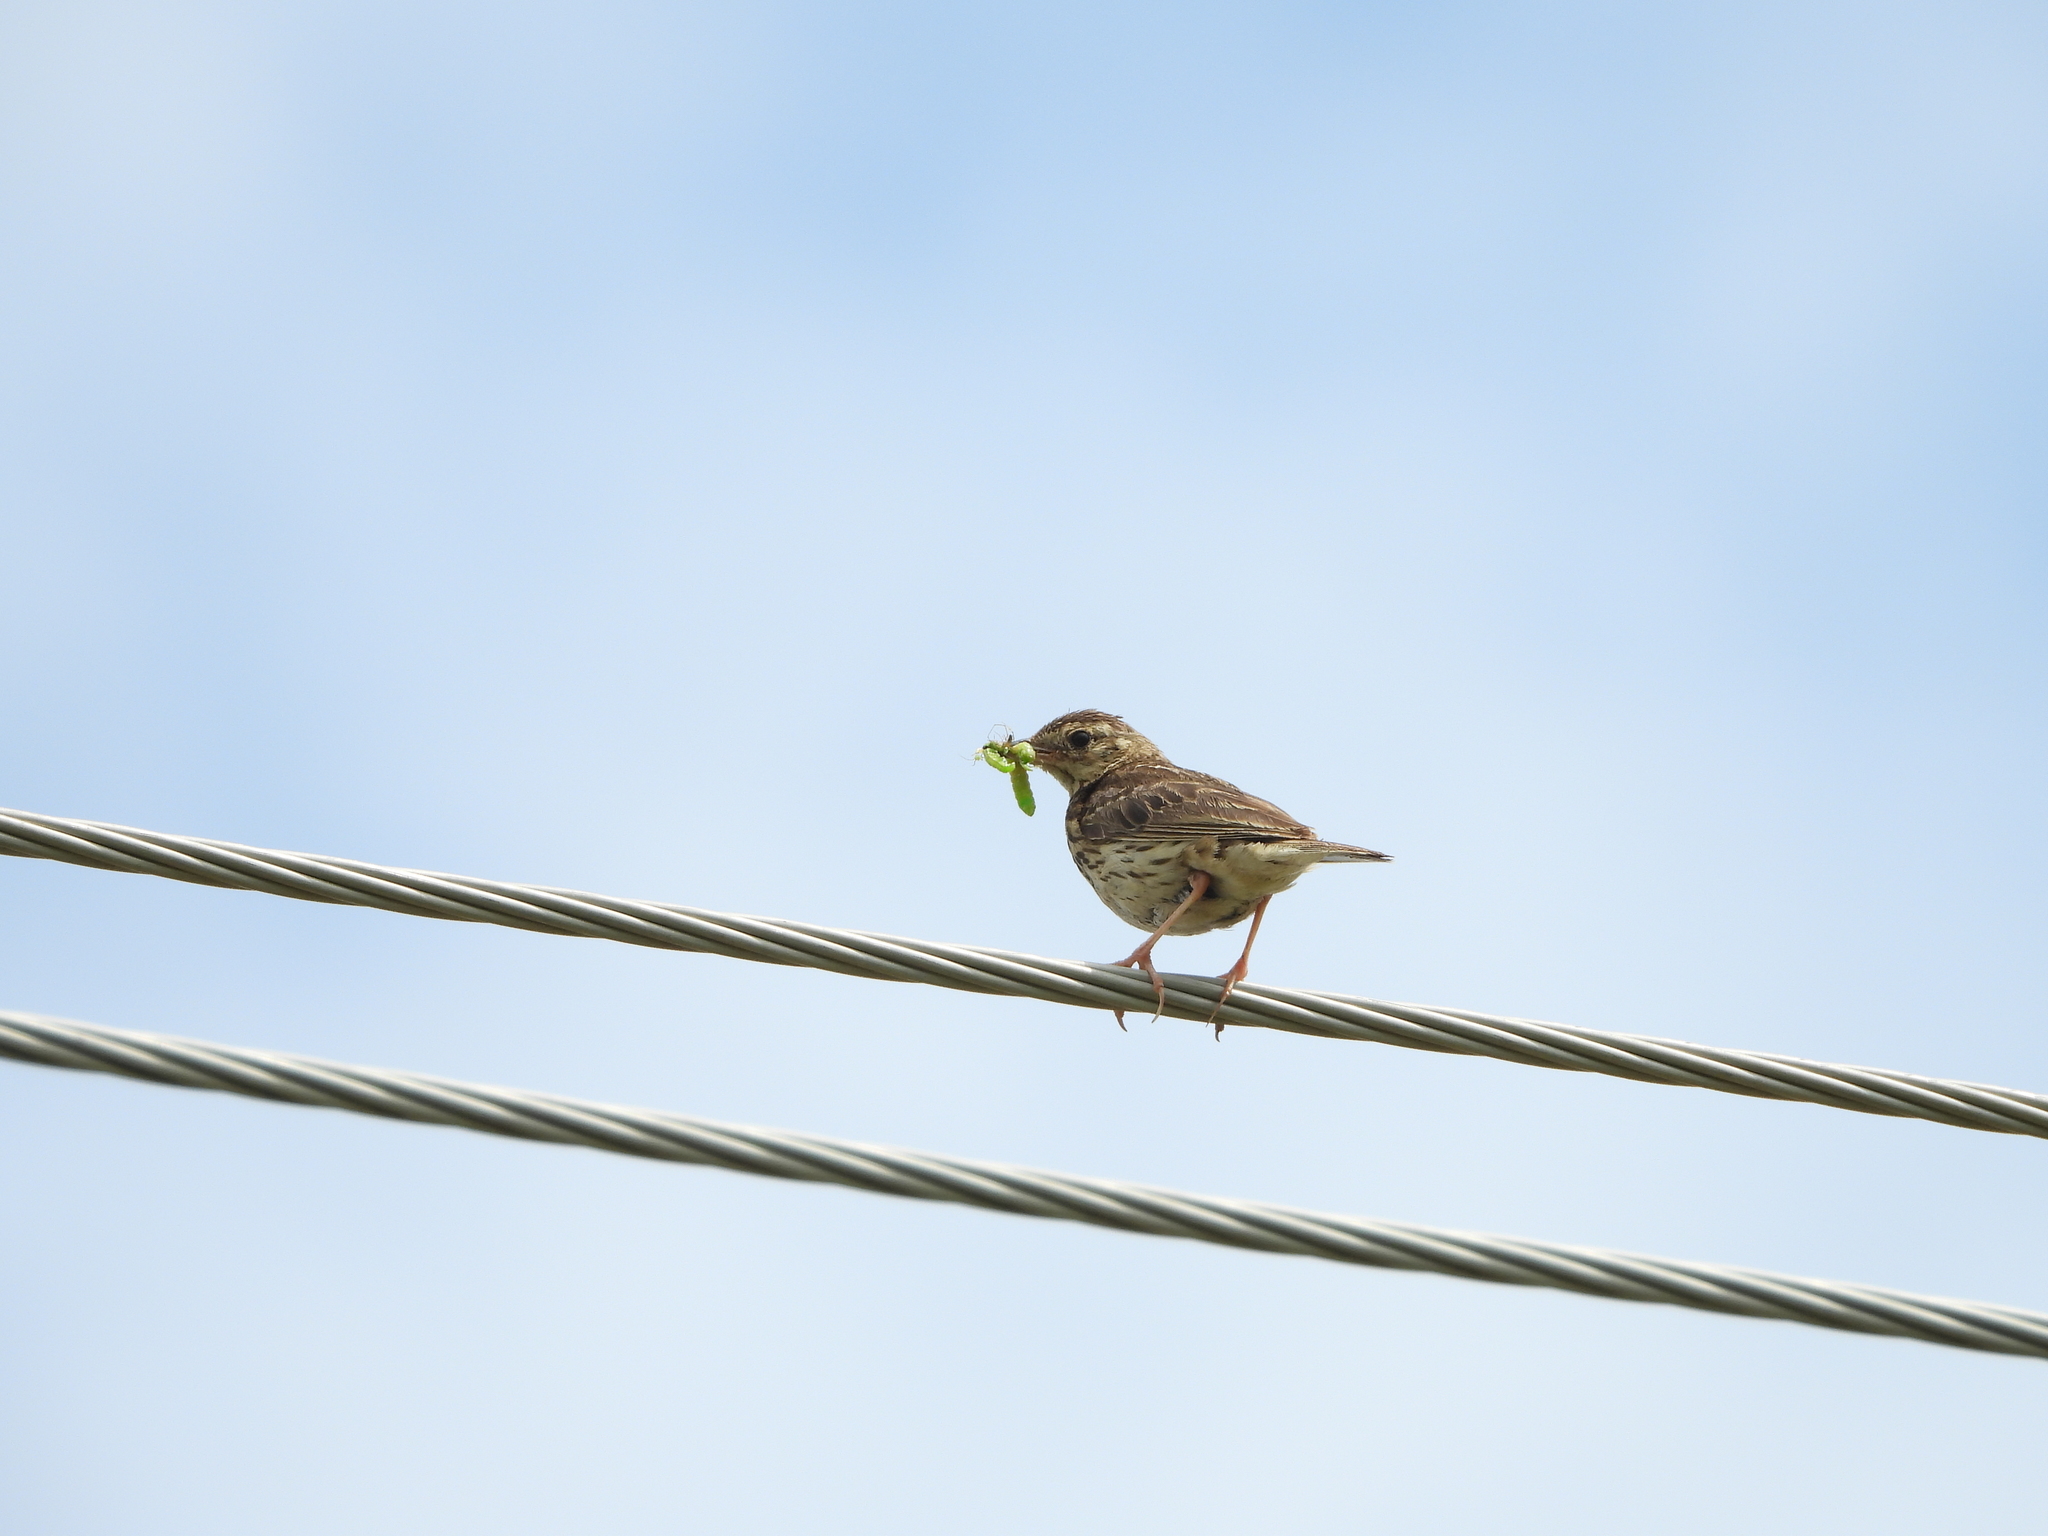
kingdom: Animalia
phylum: Chordata
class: Aves
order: Passeriformes
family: Motacillidae
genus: Anthus
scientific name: Anthus trivialis
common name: Tree pipit
